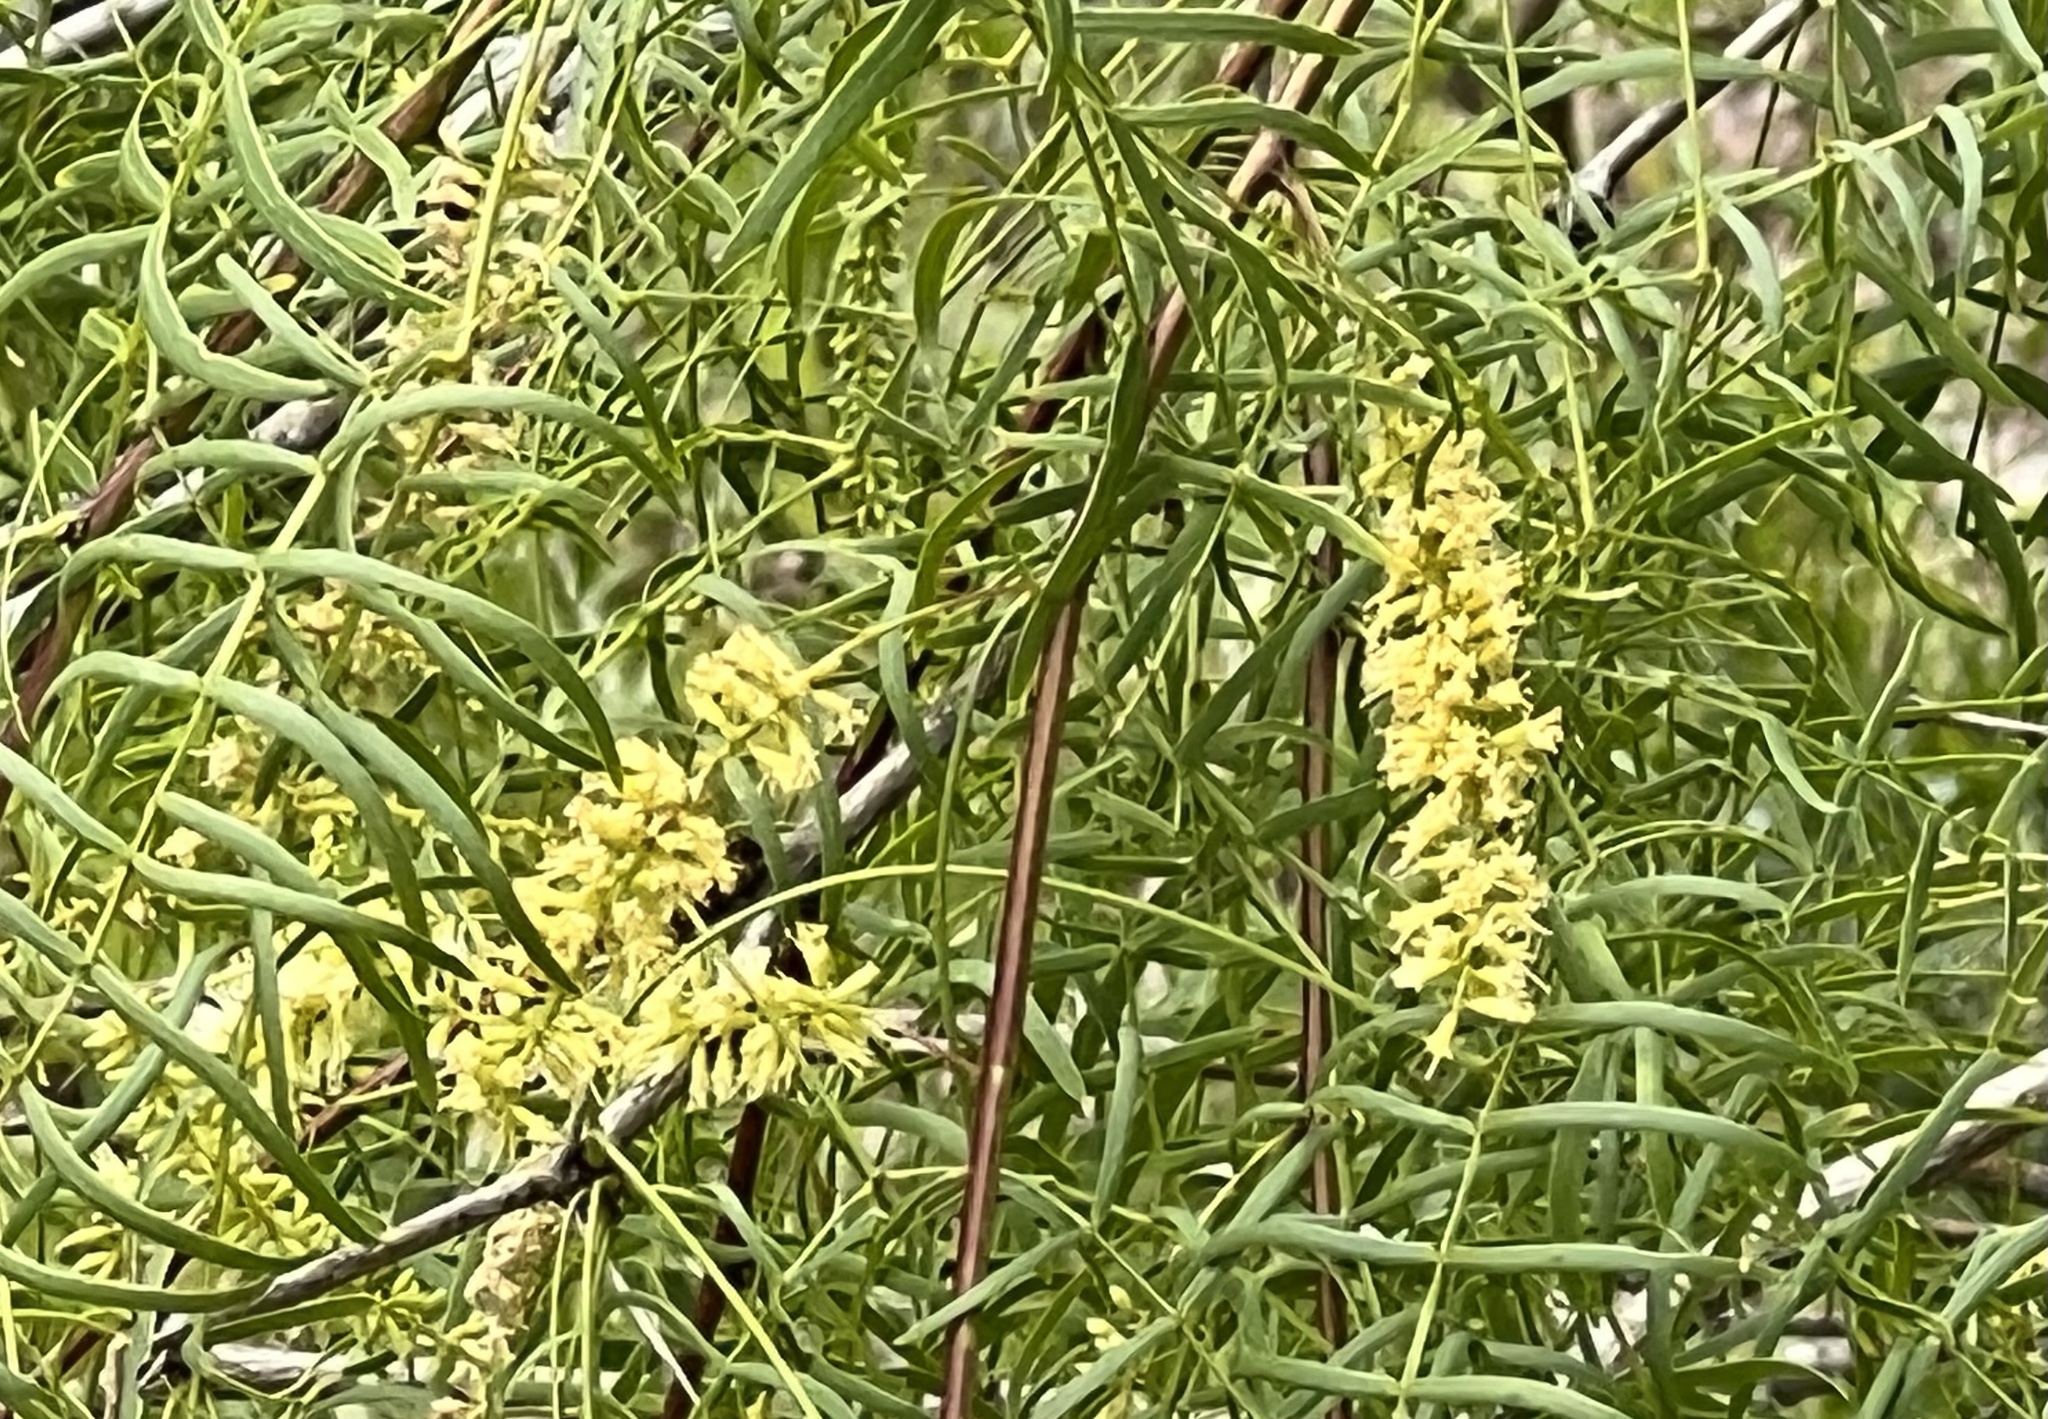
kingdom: Plantae
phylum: Tracheophyta
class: Magnoliopsida
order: Fabales
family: Fabaceae
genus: Prosopis
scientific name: Prosopis glandulosa
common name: Honey mesquite
